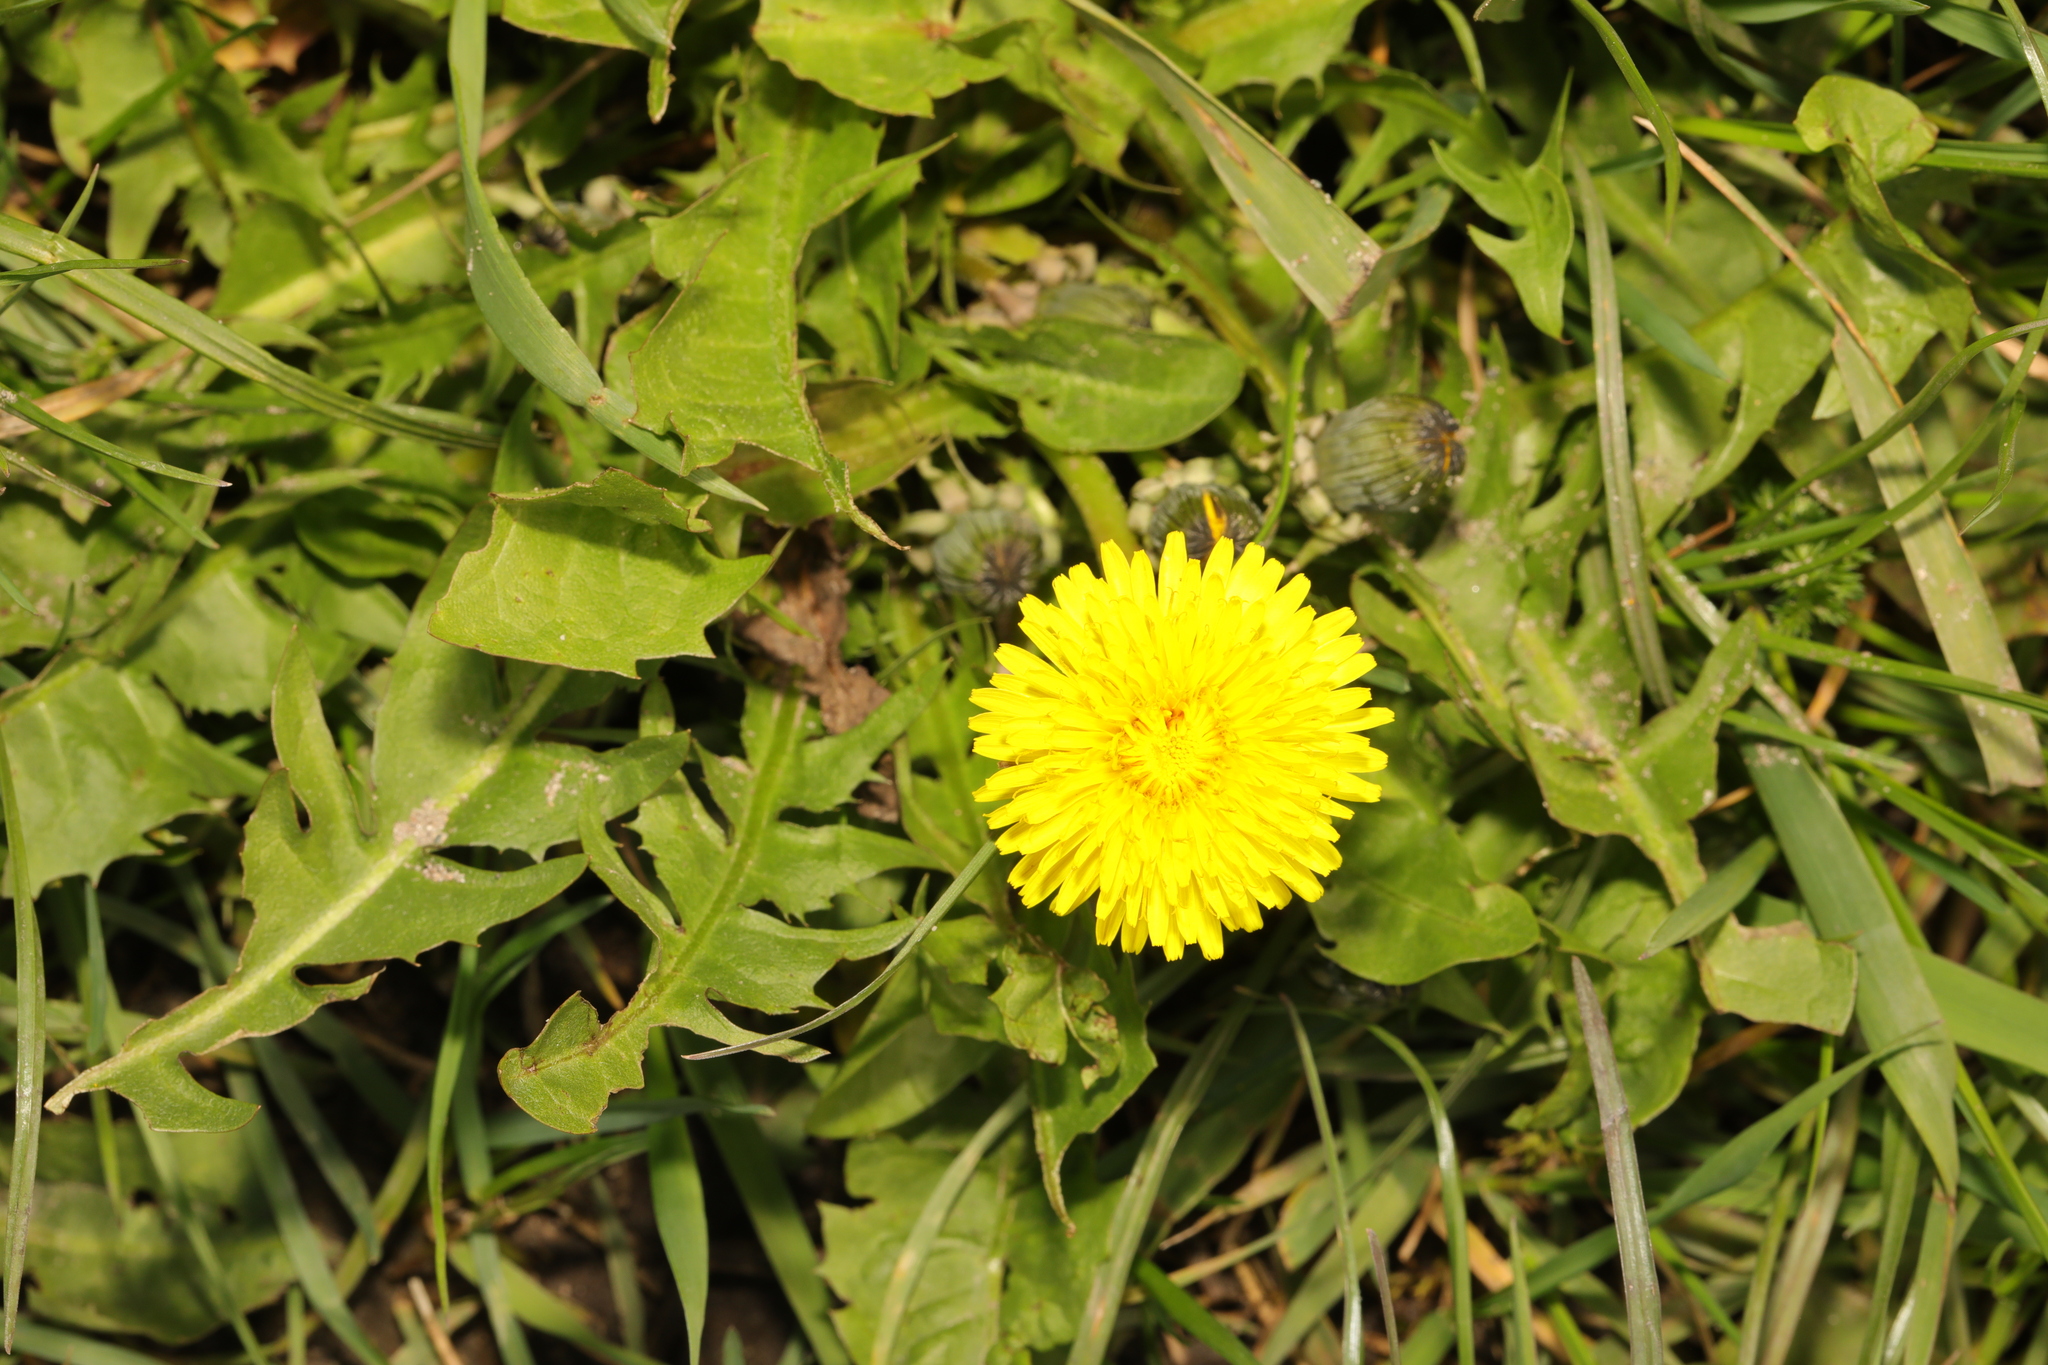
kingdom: Plantae
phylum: Tracheophyta
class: Magnoliopsida
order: Asterales
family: Asteraceae
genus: Taraxacum
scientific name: Taraxacum officinale
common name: Common dandelion
